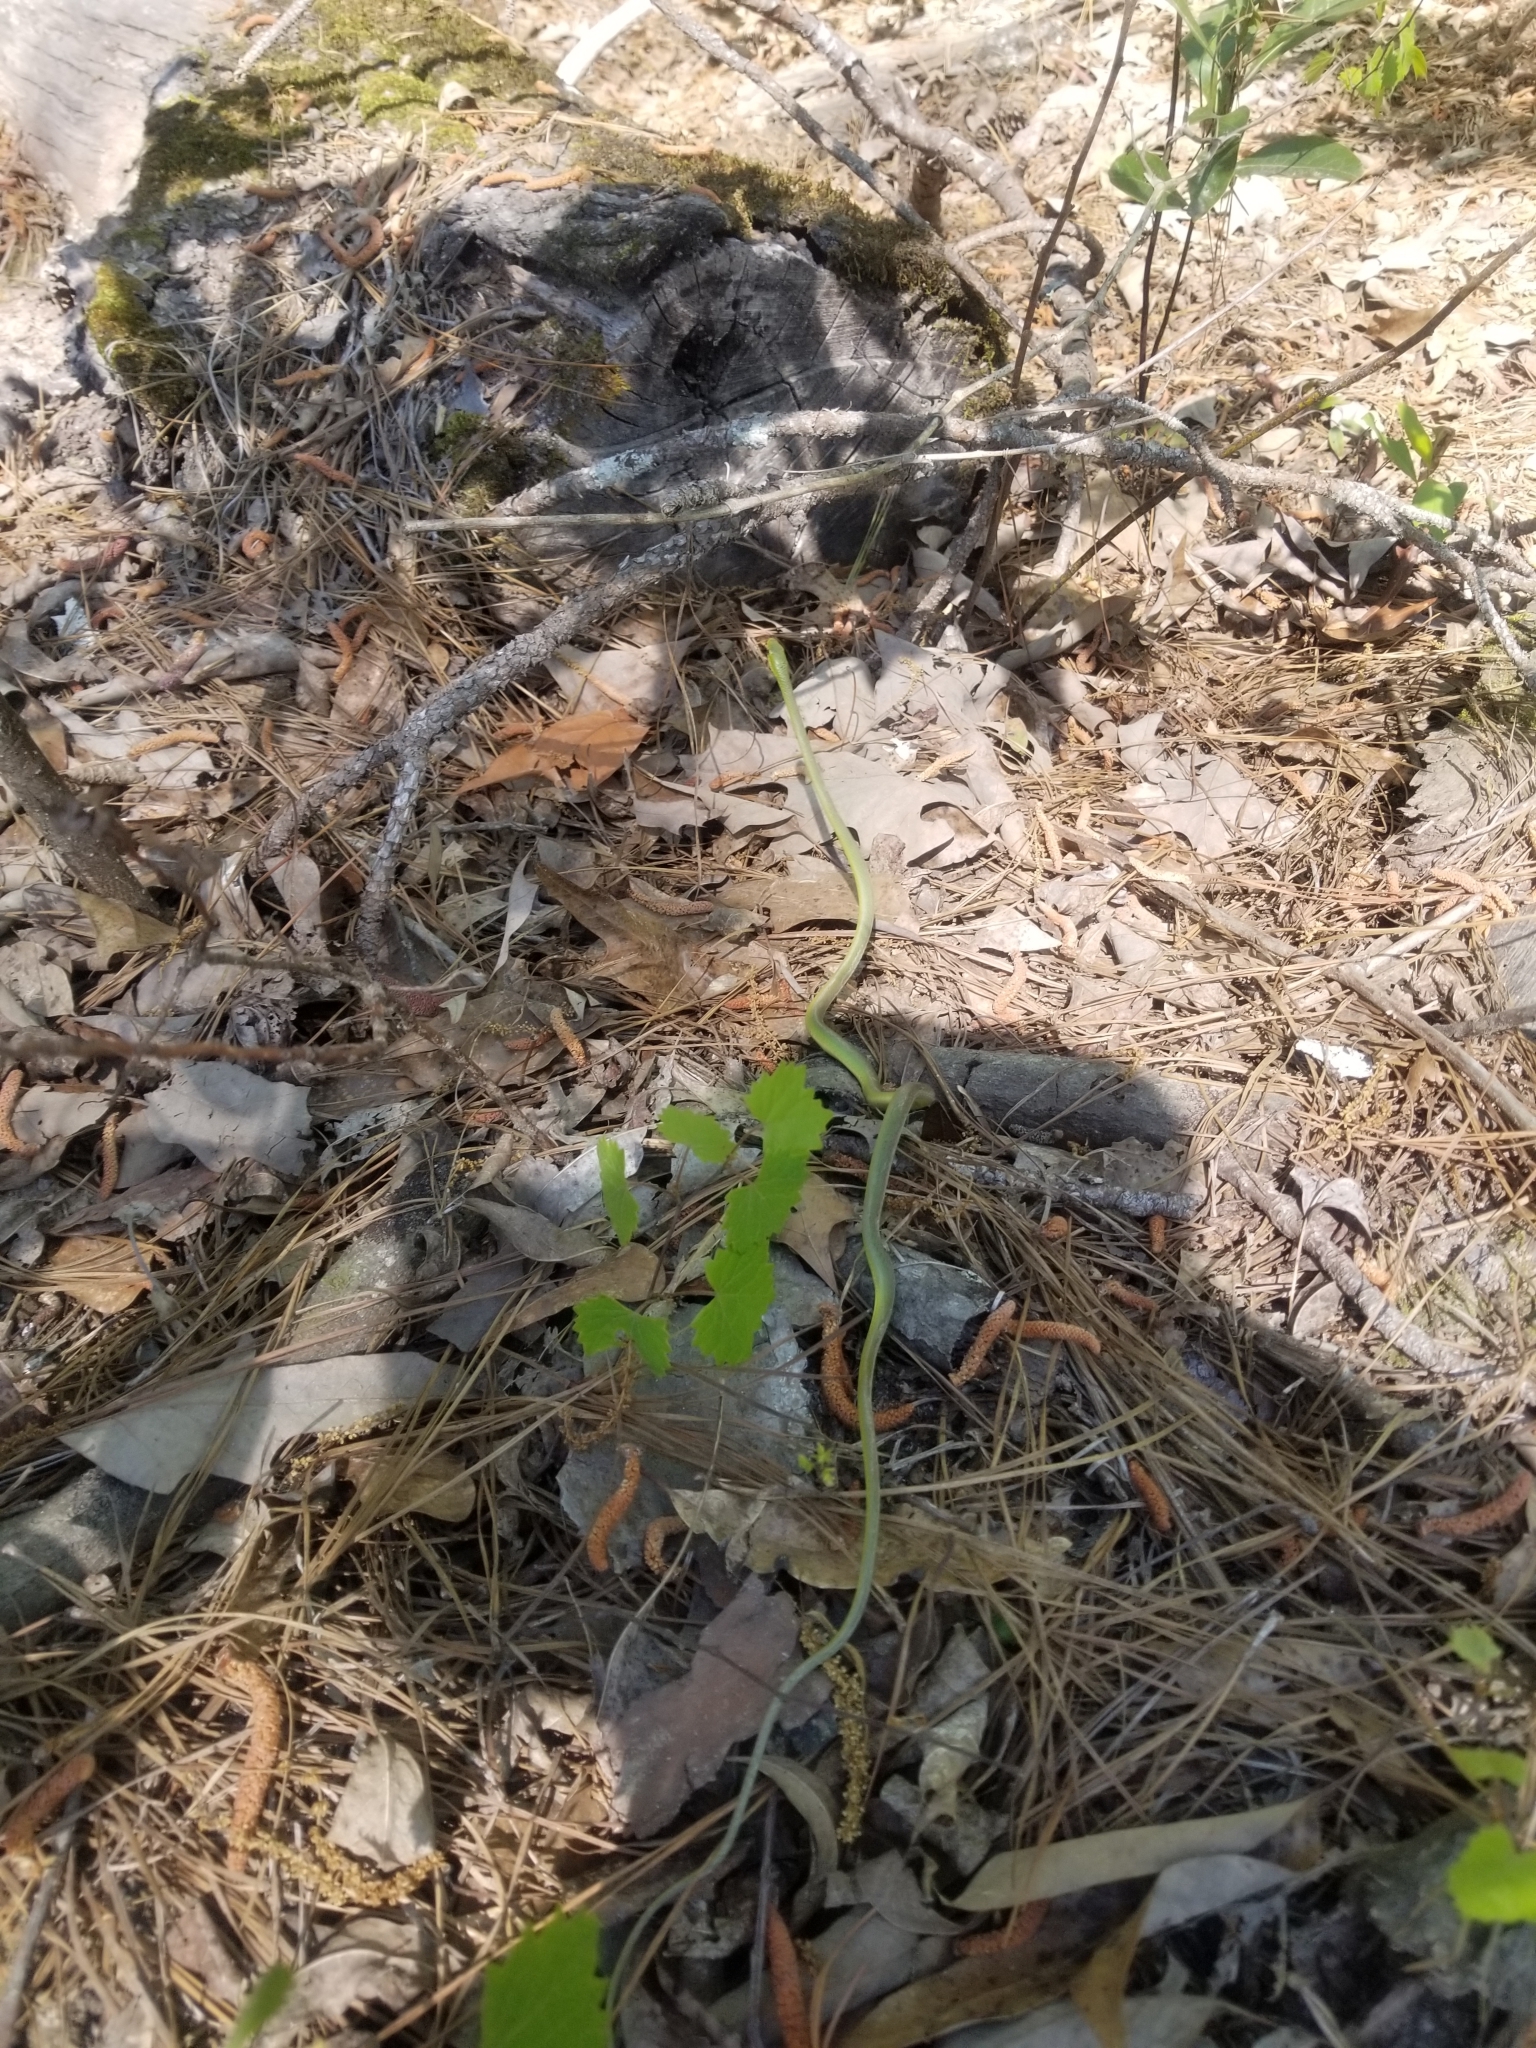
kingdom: Animalia
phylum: Chordata
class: Squamata
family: Colubridae
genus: Opheodrys
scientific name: Opheodrys aestivus
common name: Rough greensnake
